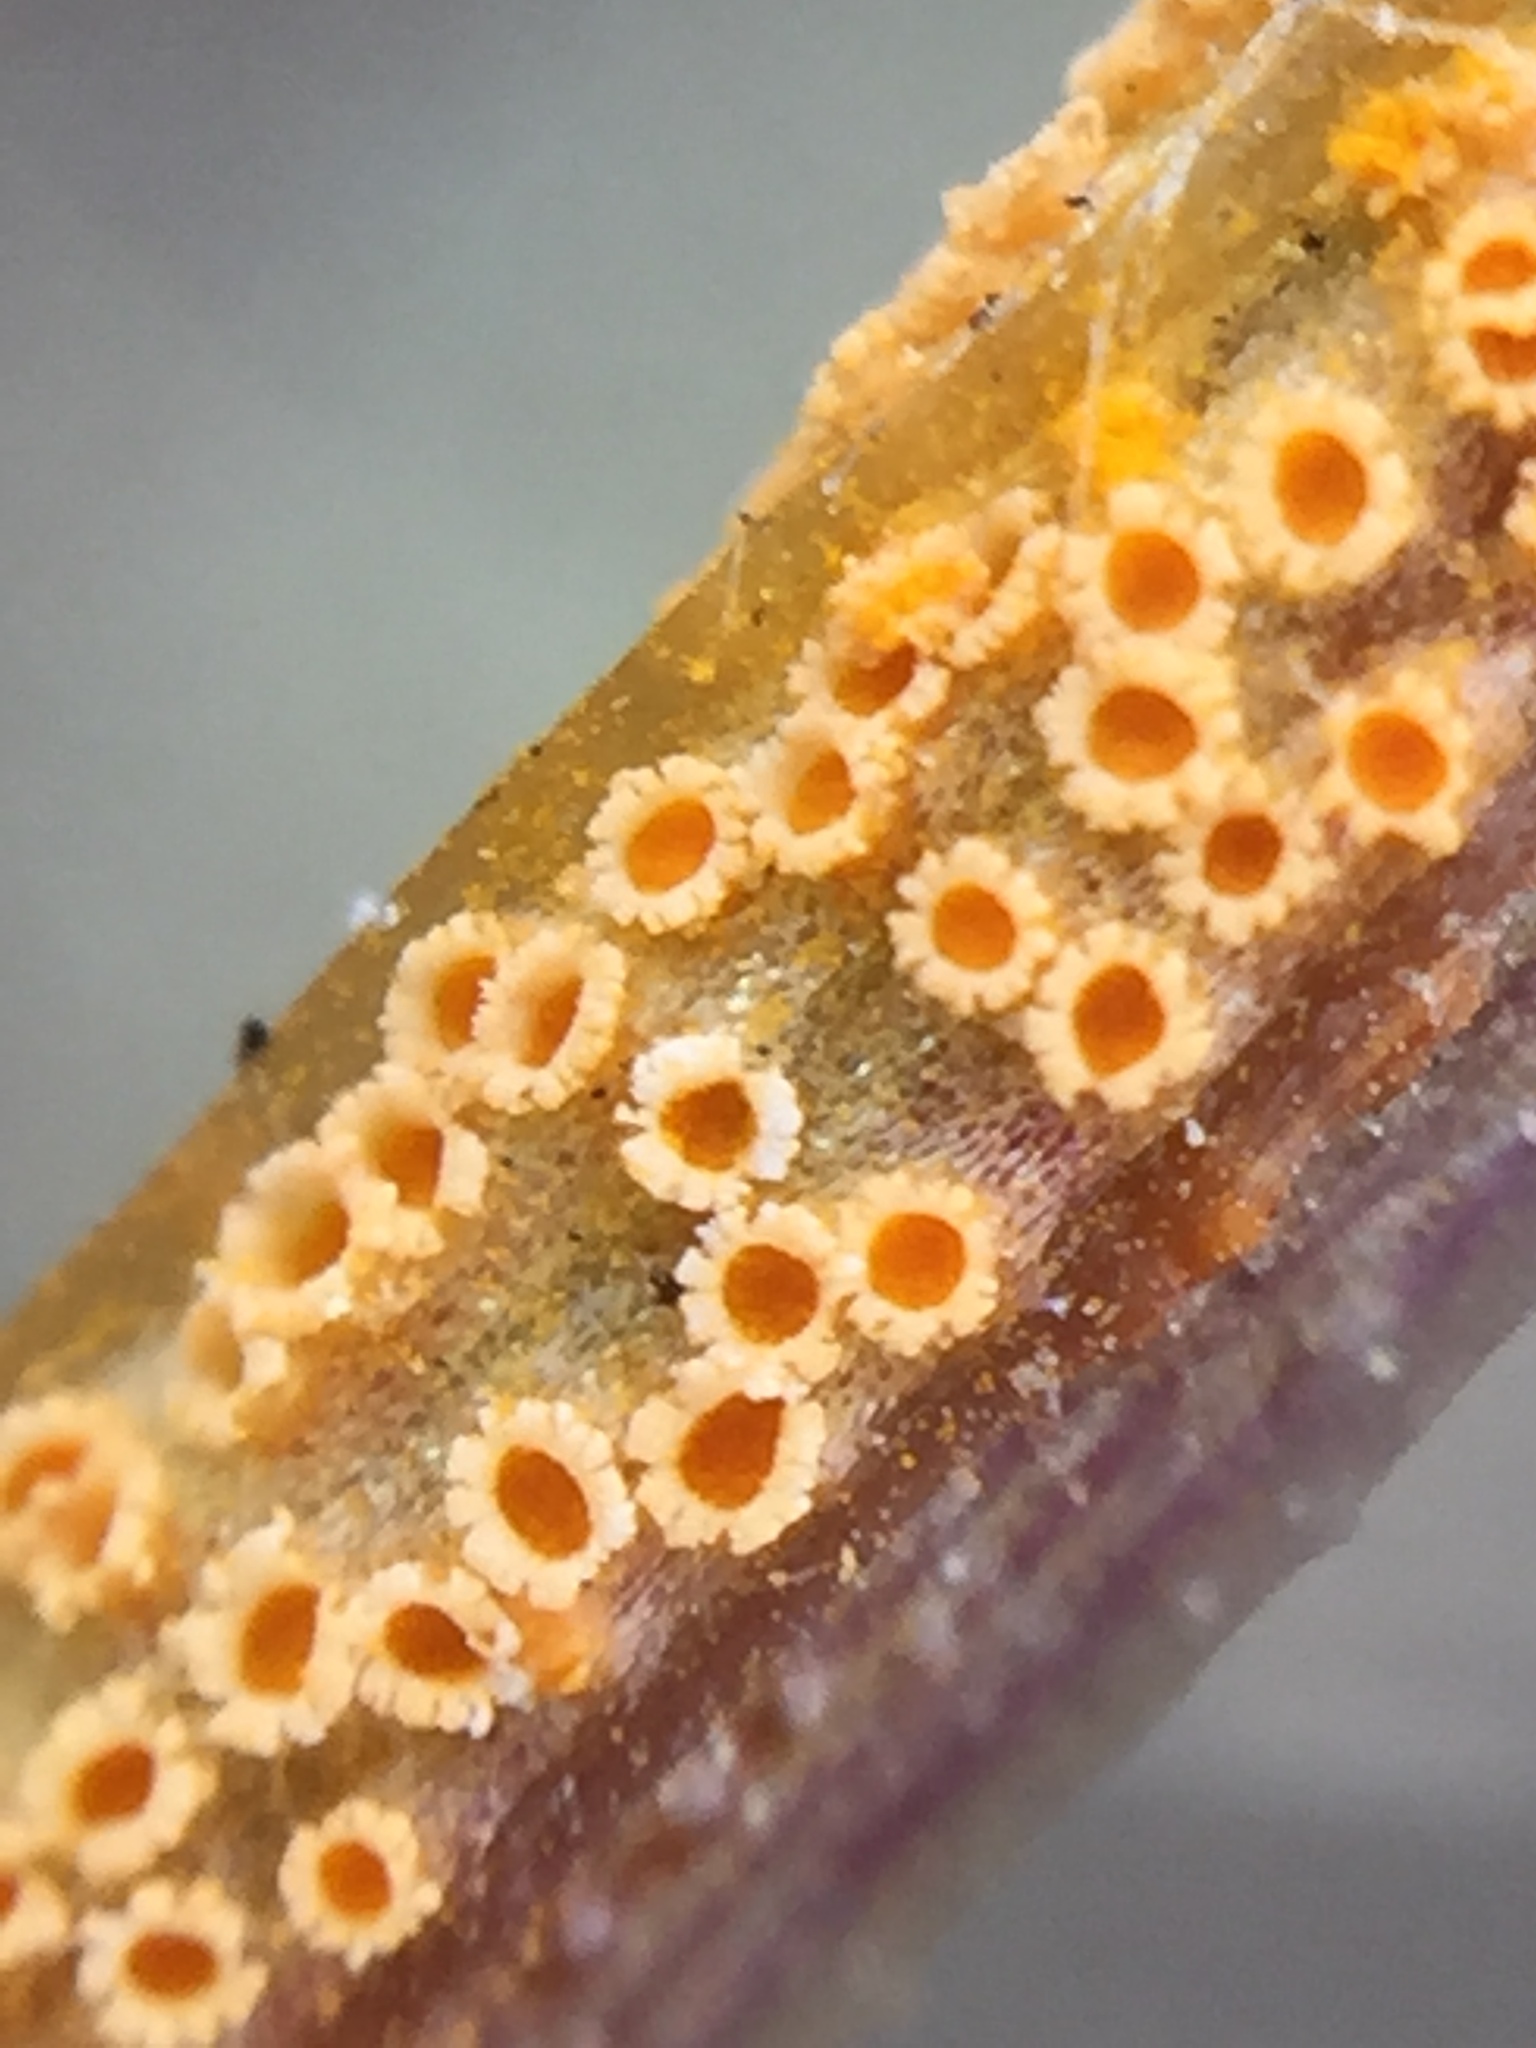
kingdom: Fungi
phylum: Basidiomycota
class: Pucciniomycetes
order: Pucciniales
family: Pucciniaceae
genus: Puccinia
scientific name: Puccinia lagenophorae
